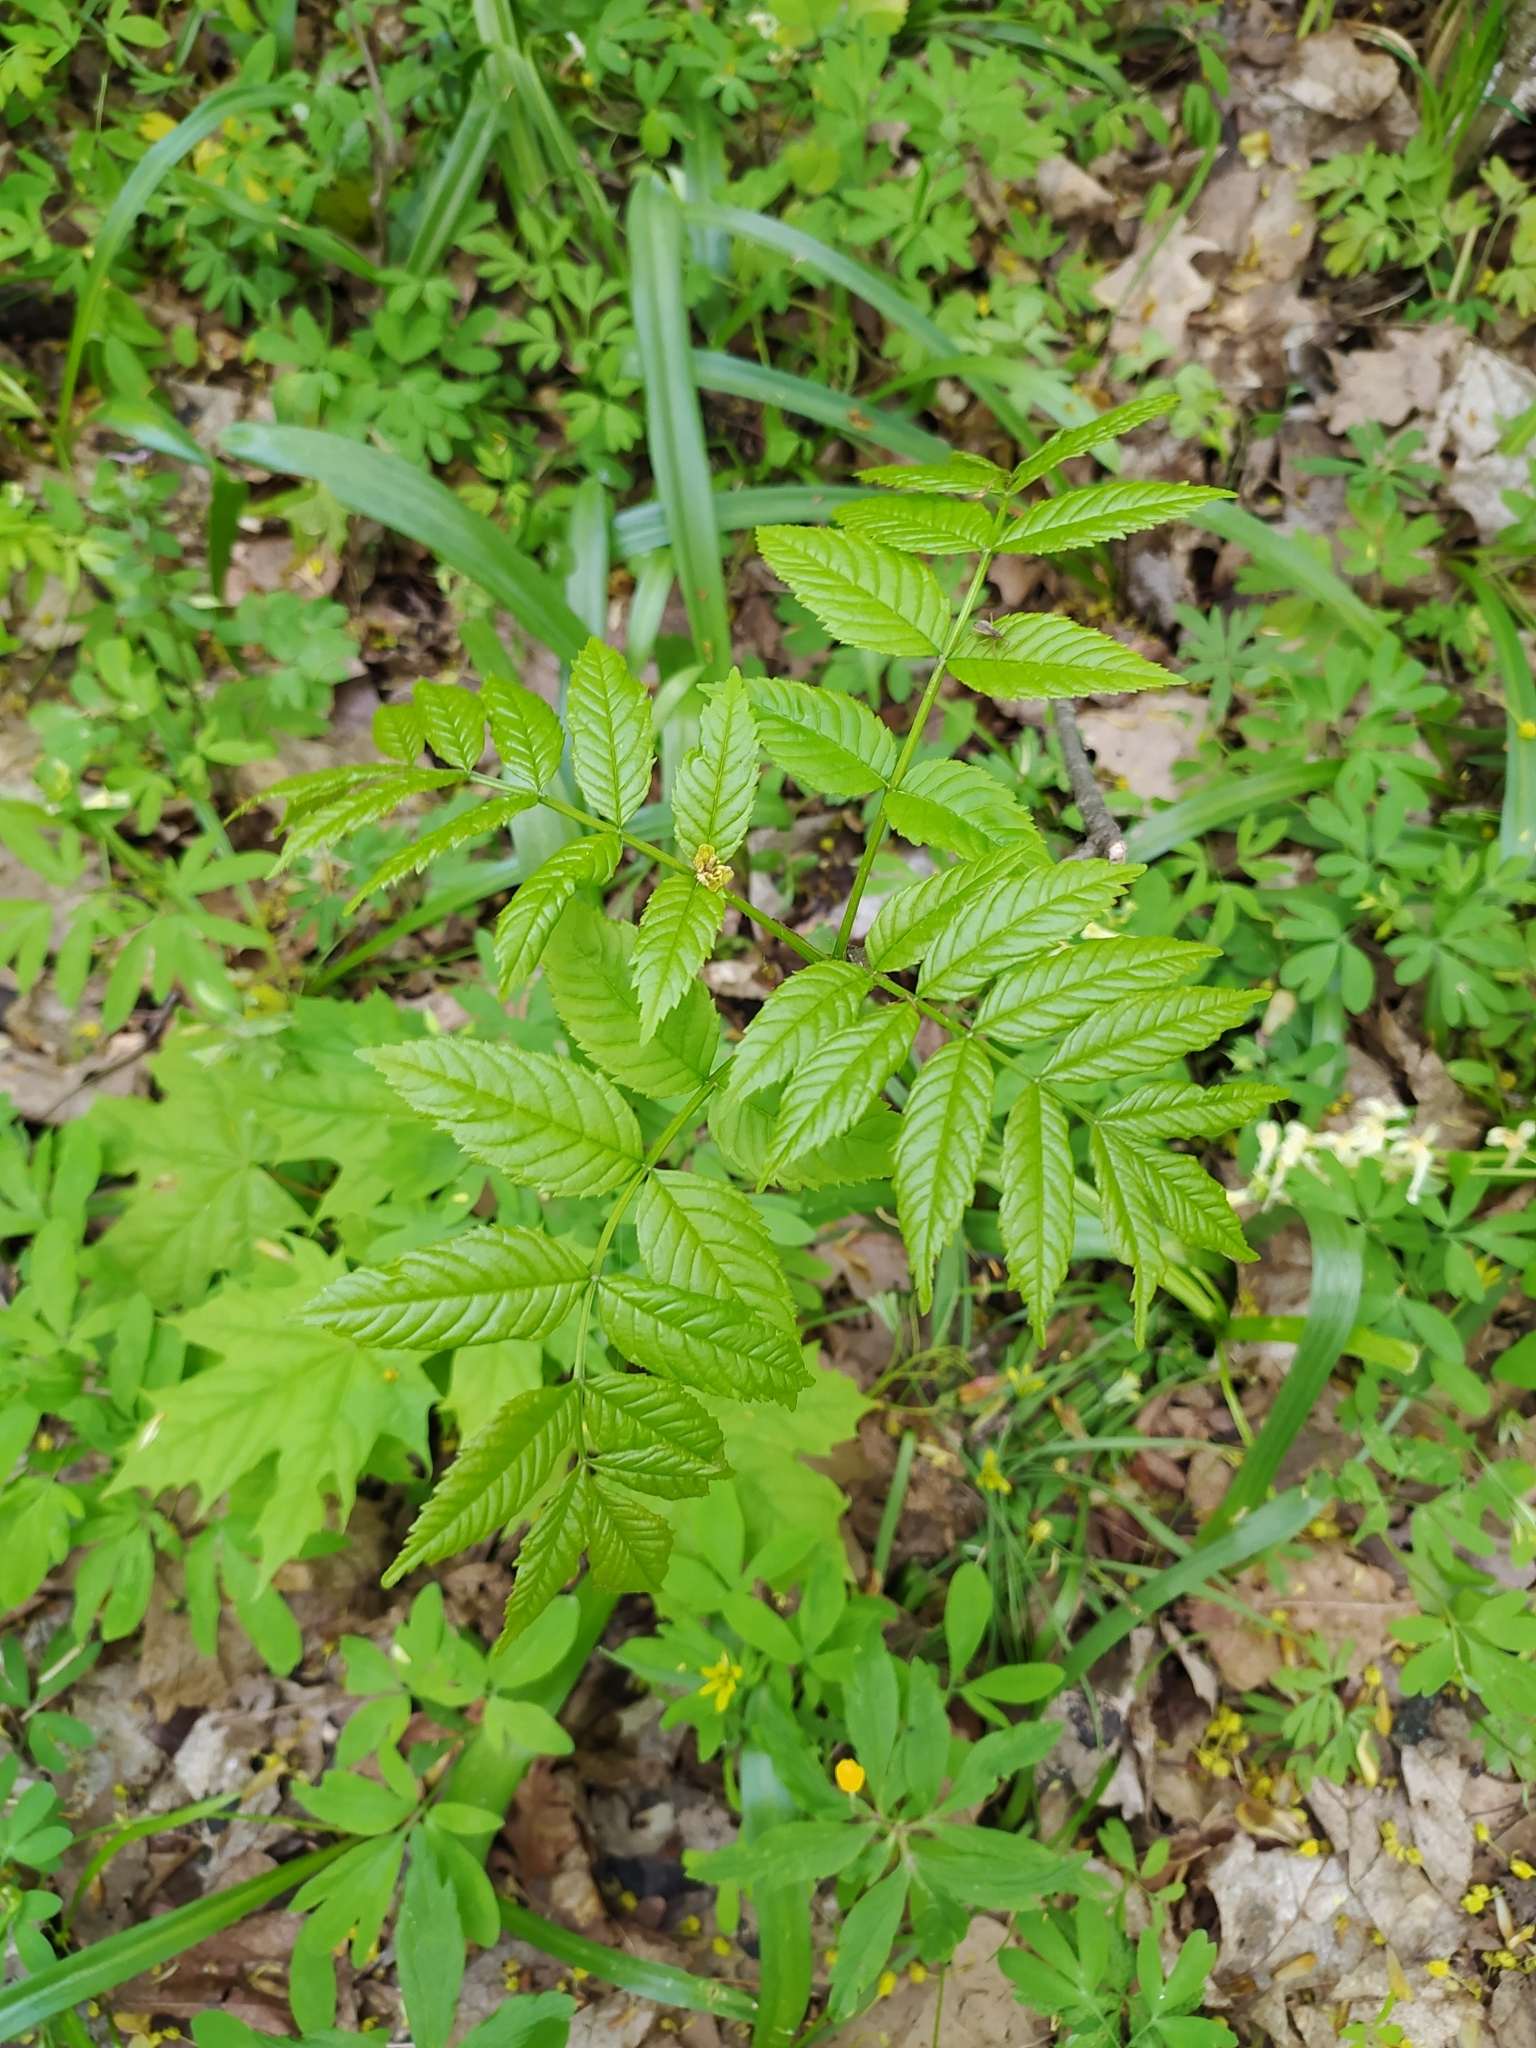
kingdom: Plantae
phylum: Tracheophyta
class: Magnoliopsida
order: Rosales
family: Rosaceae
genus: Sorbus
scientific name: Sorbus aucuparia
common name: Rowan
